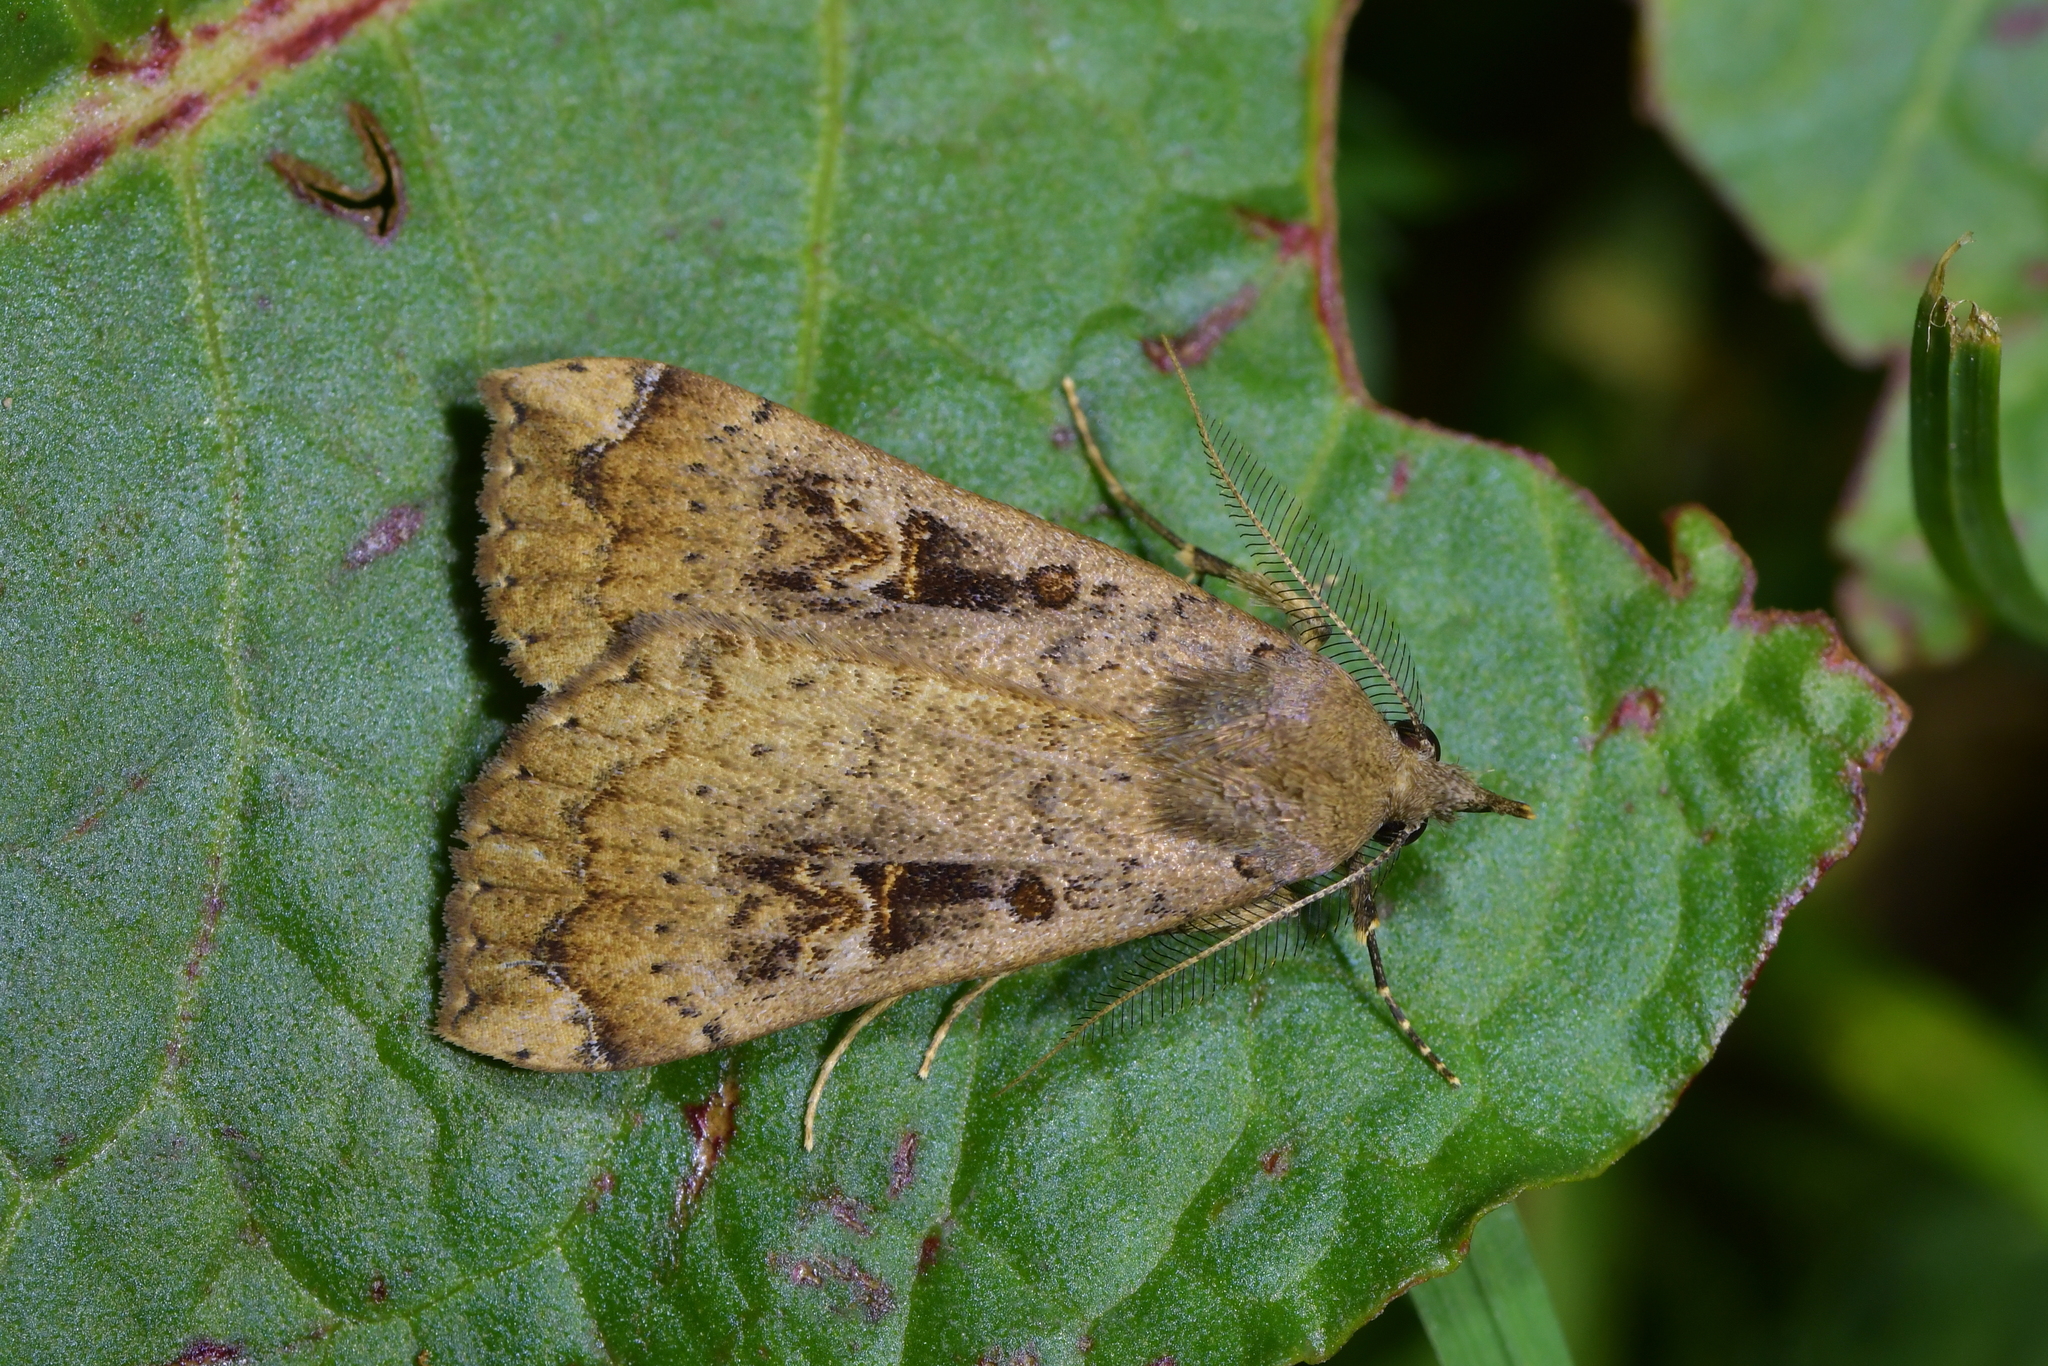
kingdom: Animalia
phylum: Arthropoda
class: Insecta
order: Lepidoptera
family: Erebidae
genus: Rhapsa
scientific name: Rhapsa scotosialis
